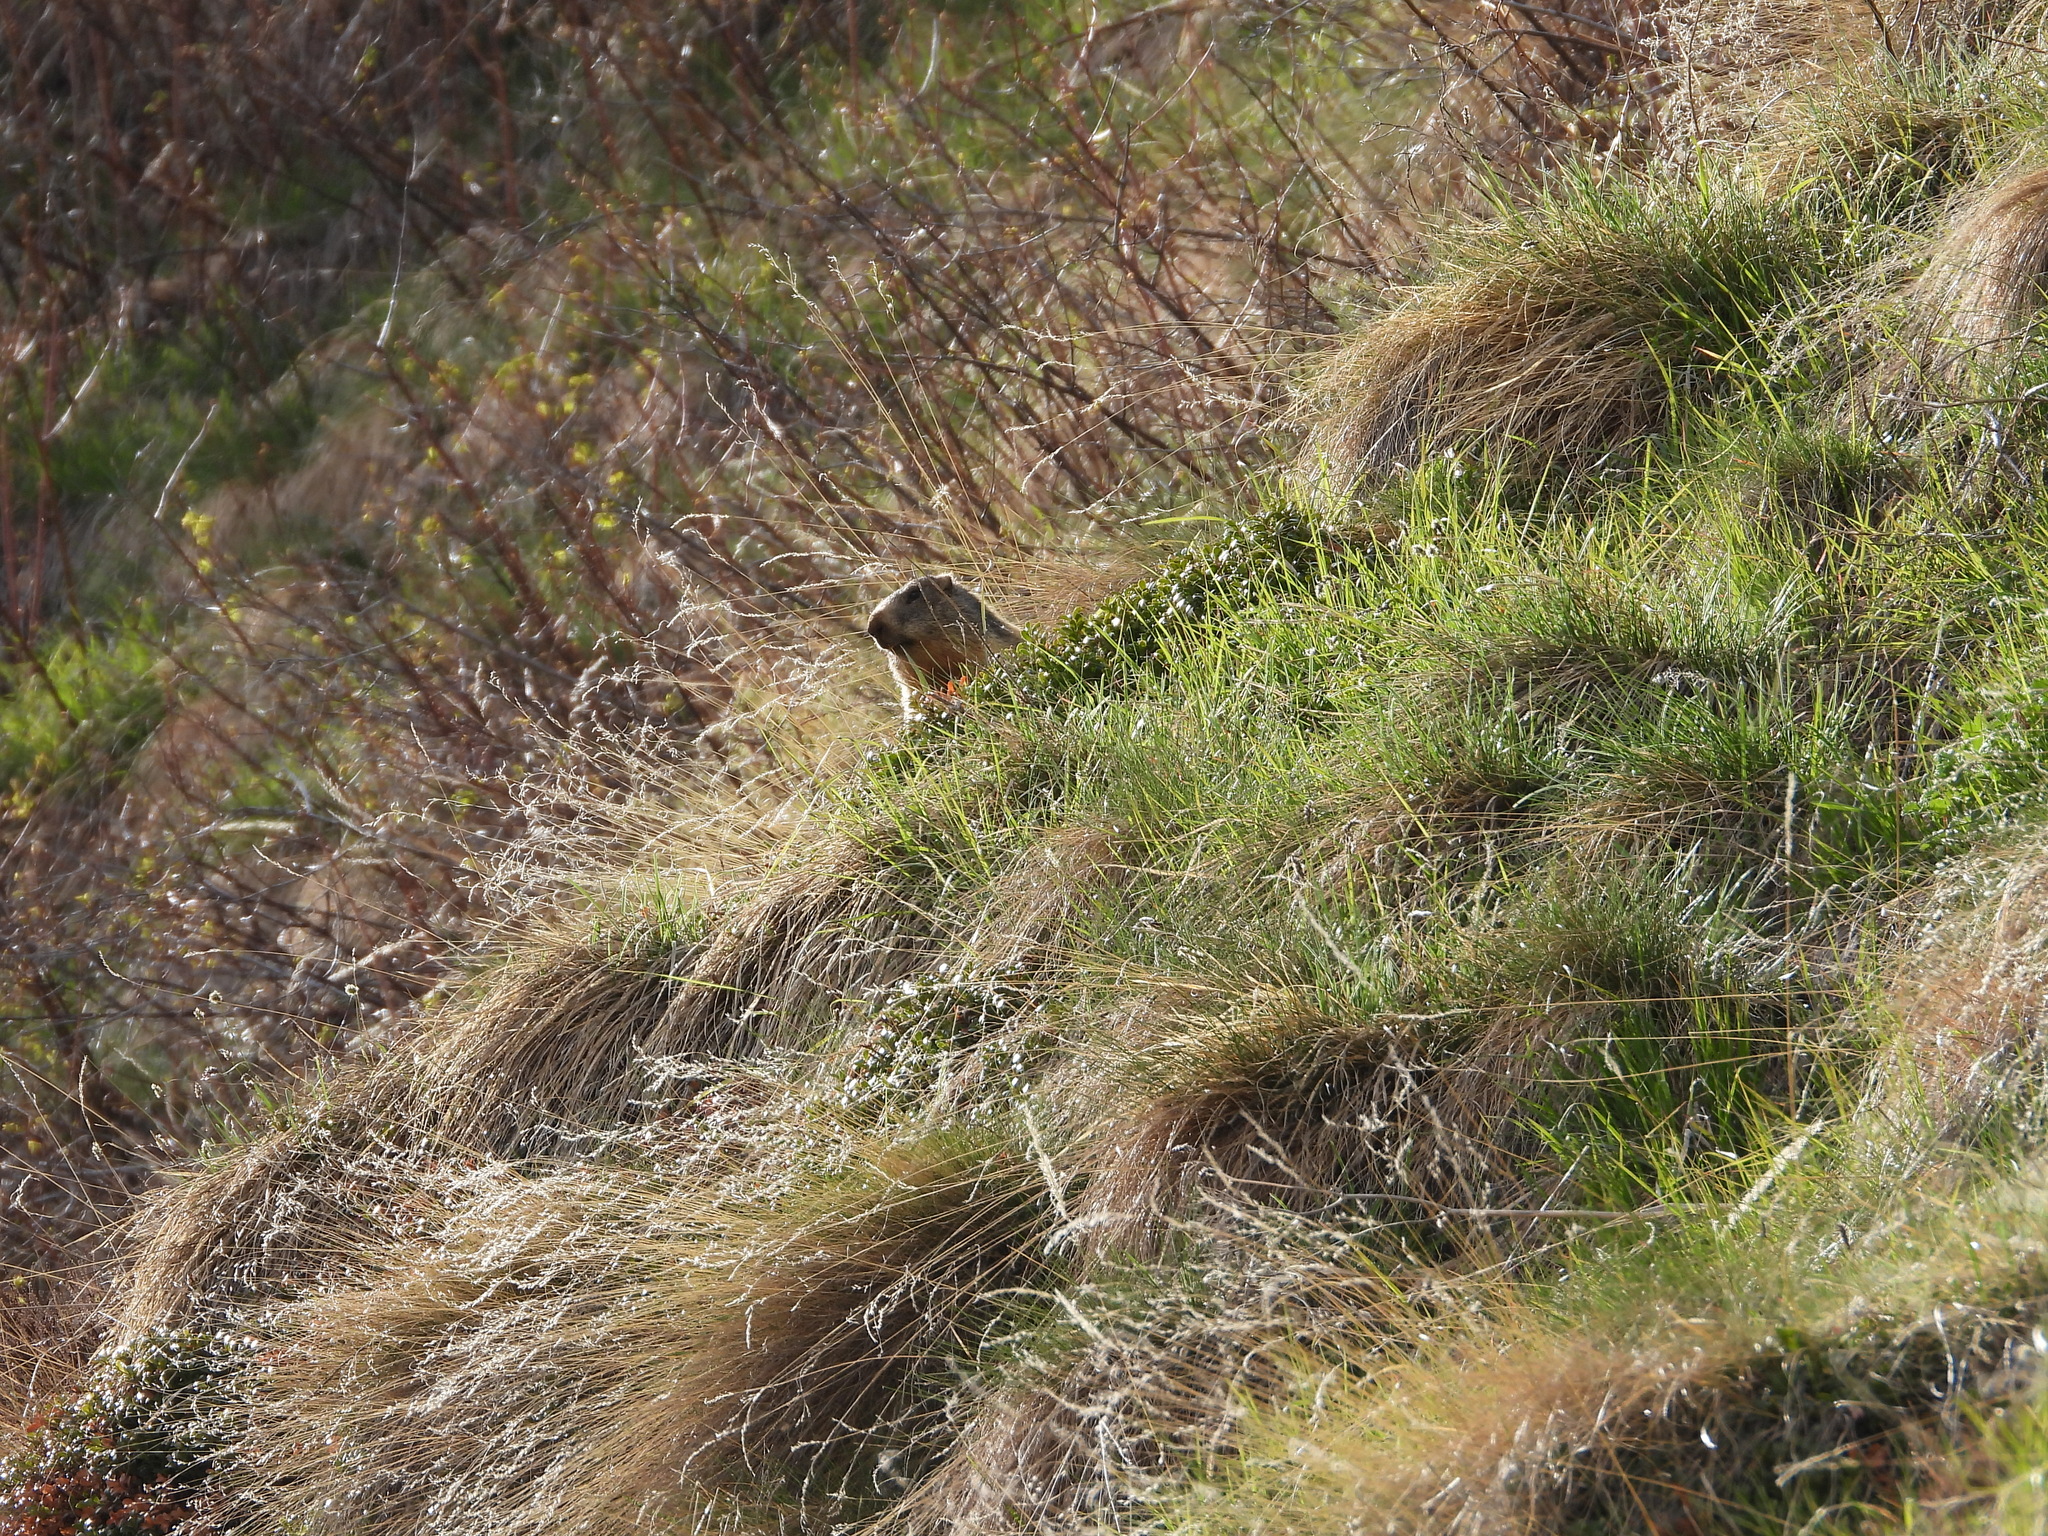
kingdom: Animalia
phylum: Chordata
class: Mammalia
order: Rodentia
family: Sciuridae
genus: Marmota
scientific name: Marmota marmota
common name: Alpine marmot
